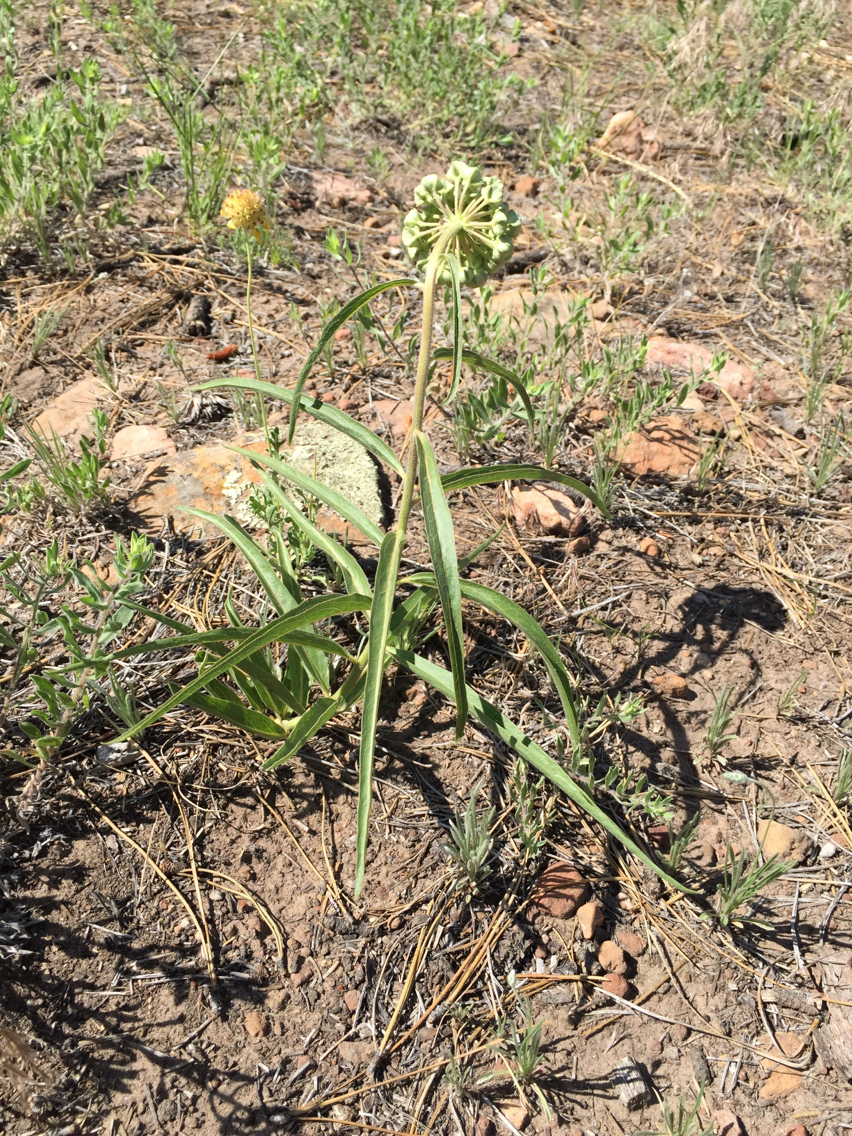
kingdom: Plantae
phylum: Tracheophyta
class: Magnoliopsida
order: Gentianales
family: Apocynaceae
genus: Asclepias
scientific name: Asclepias asperula
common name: Antelope horns
